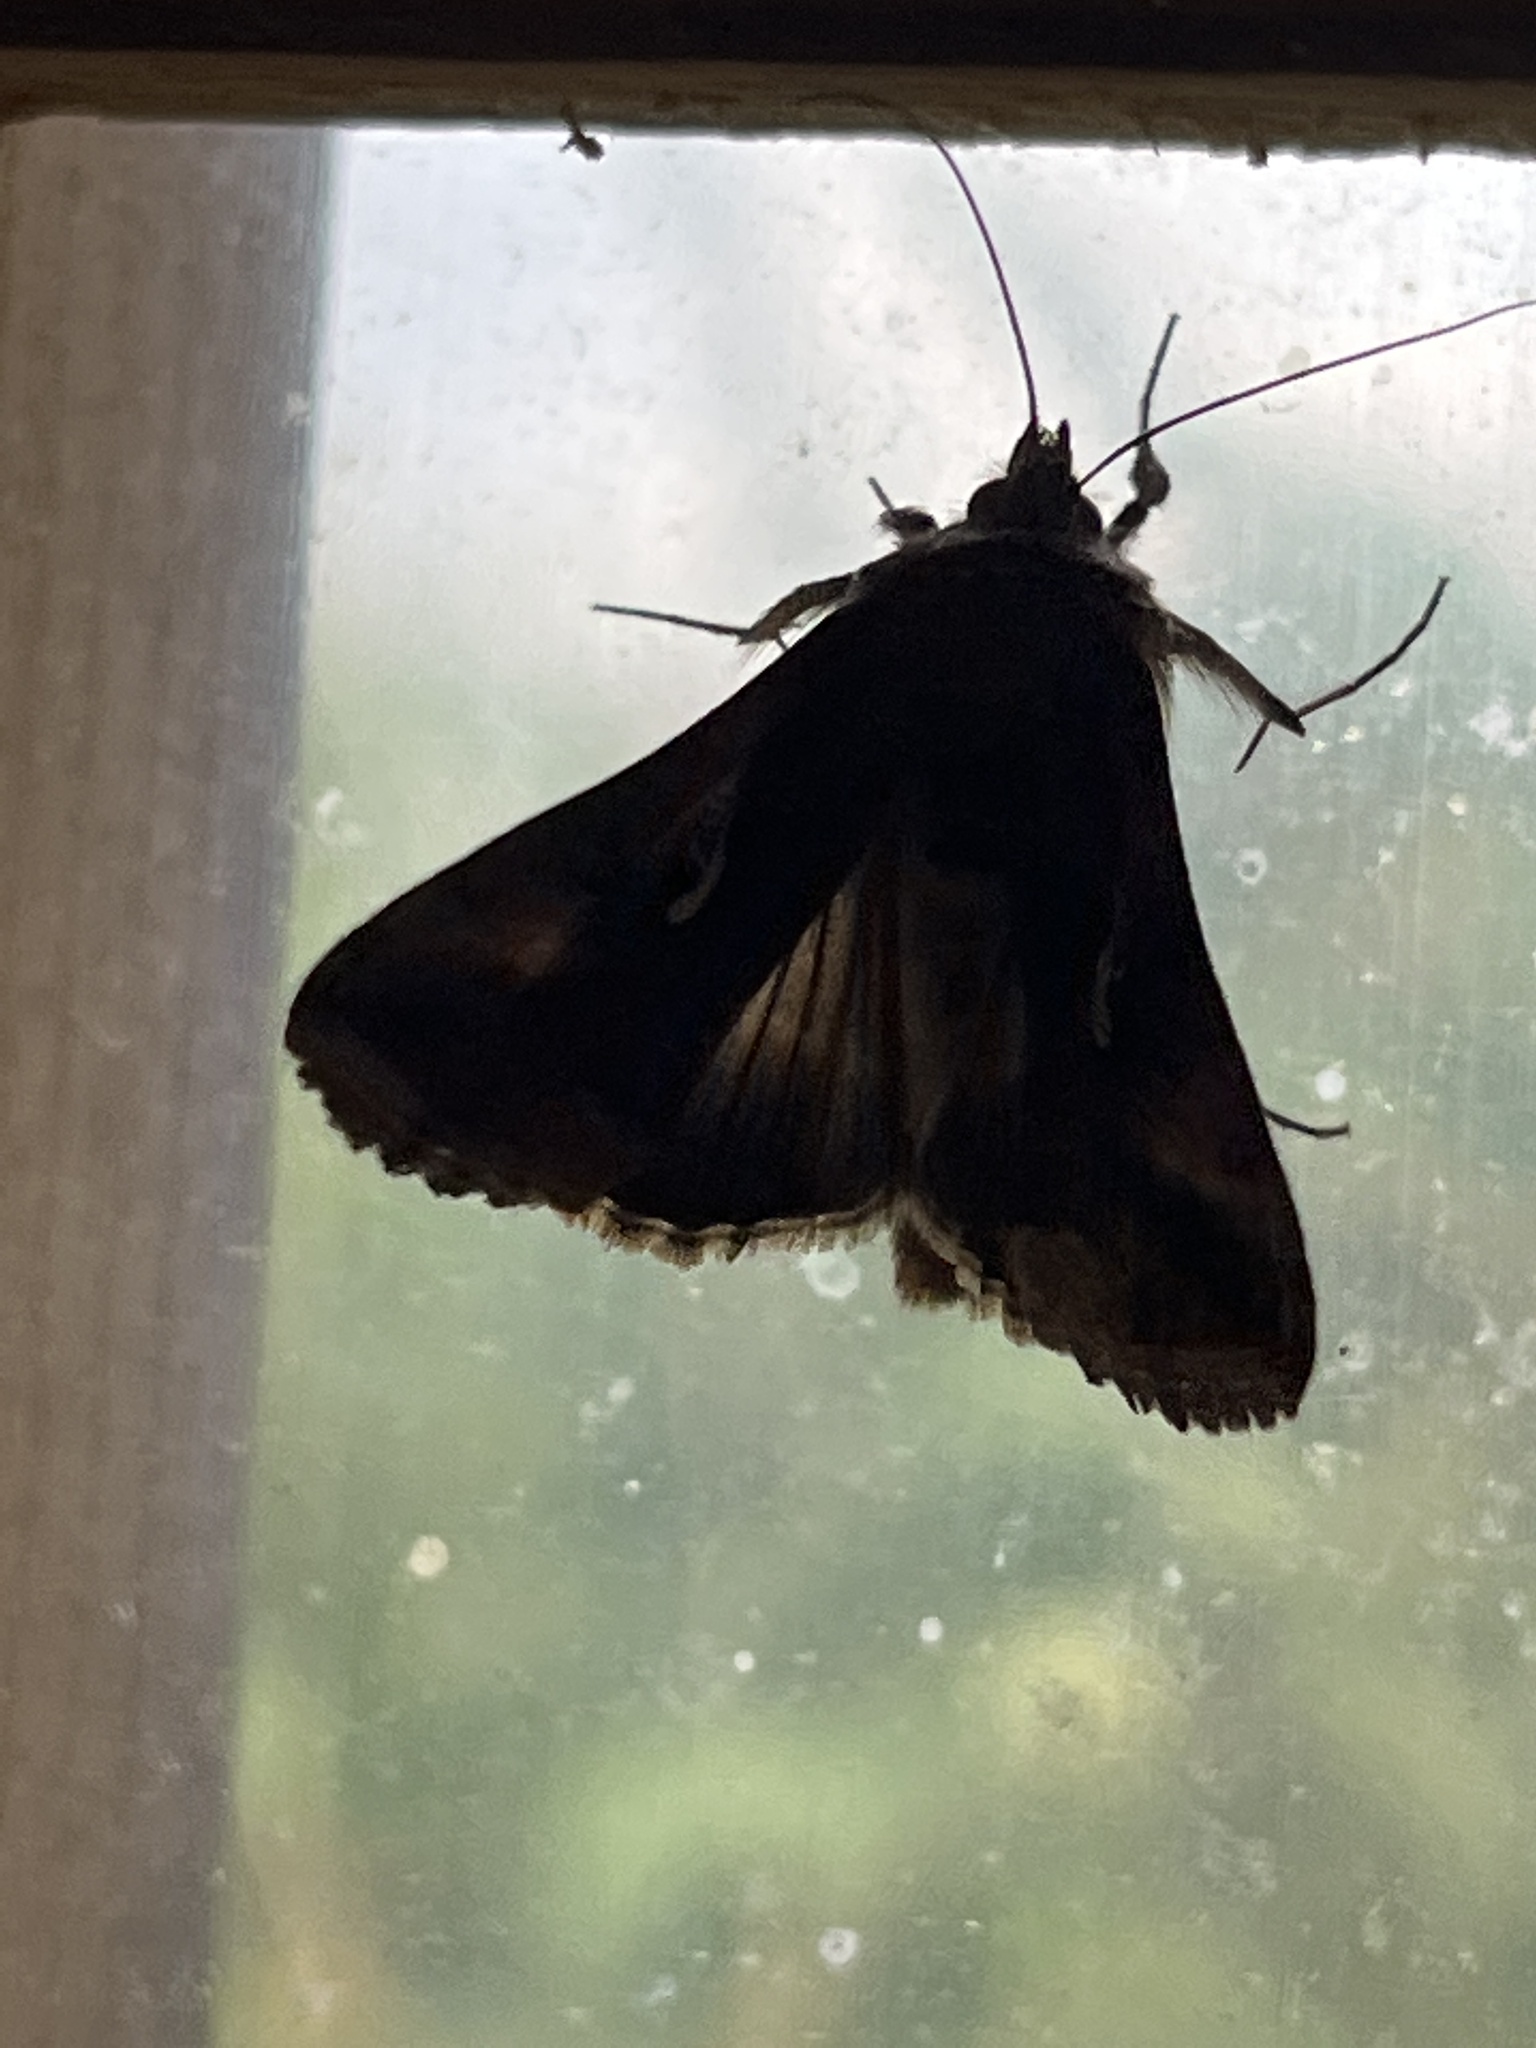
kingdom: Animalia
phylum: Arthropoda
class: Insecta
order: Lepidoptera
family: Noctuidae
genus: Autographa
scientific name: Autographa gamma
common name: Silver y
